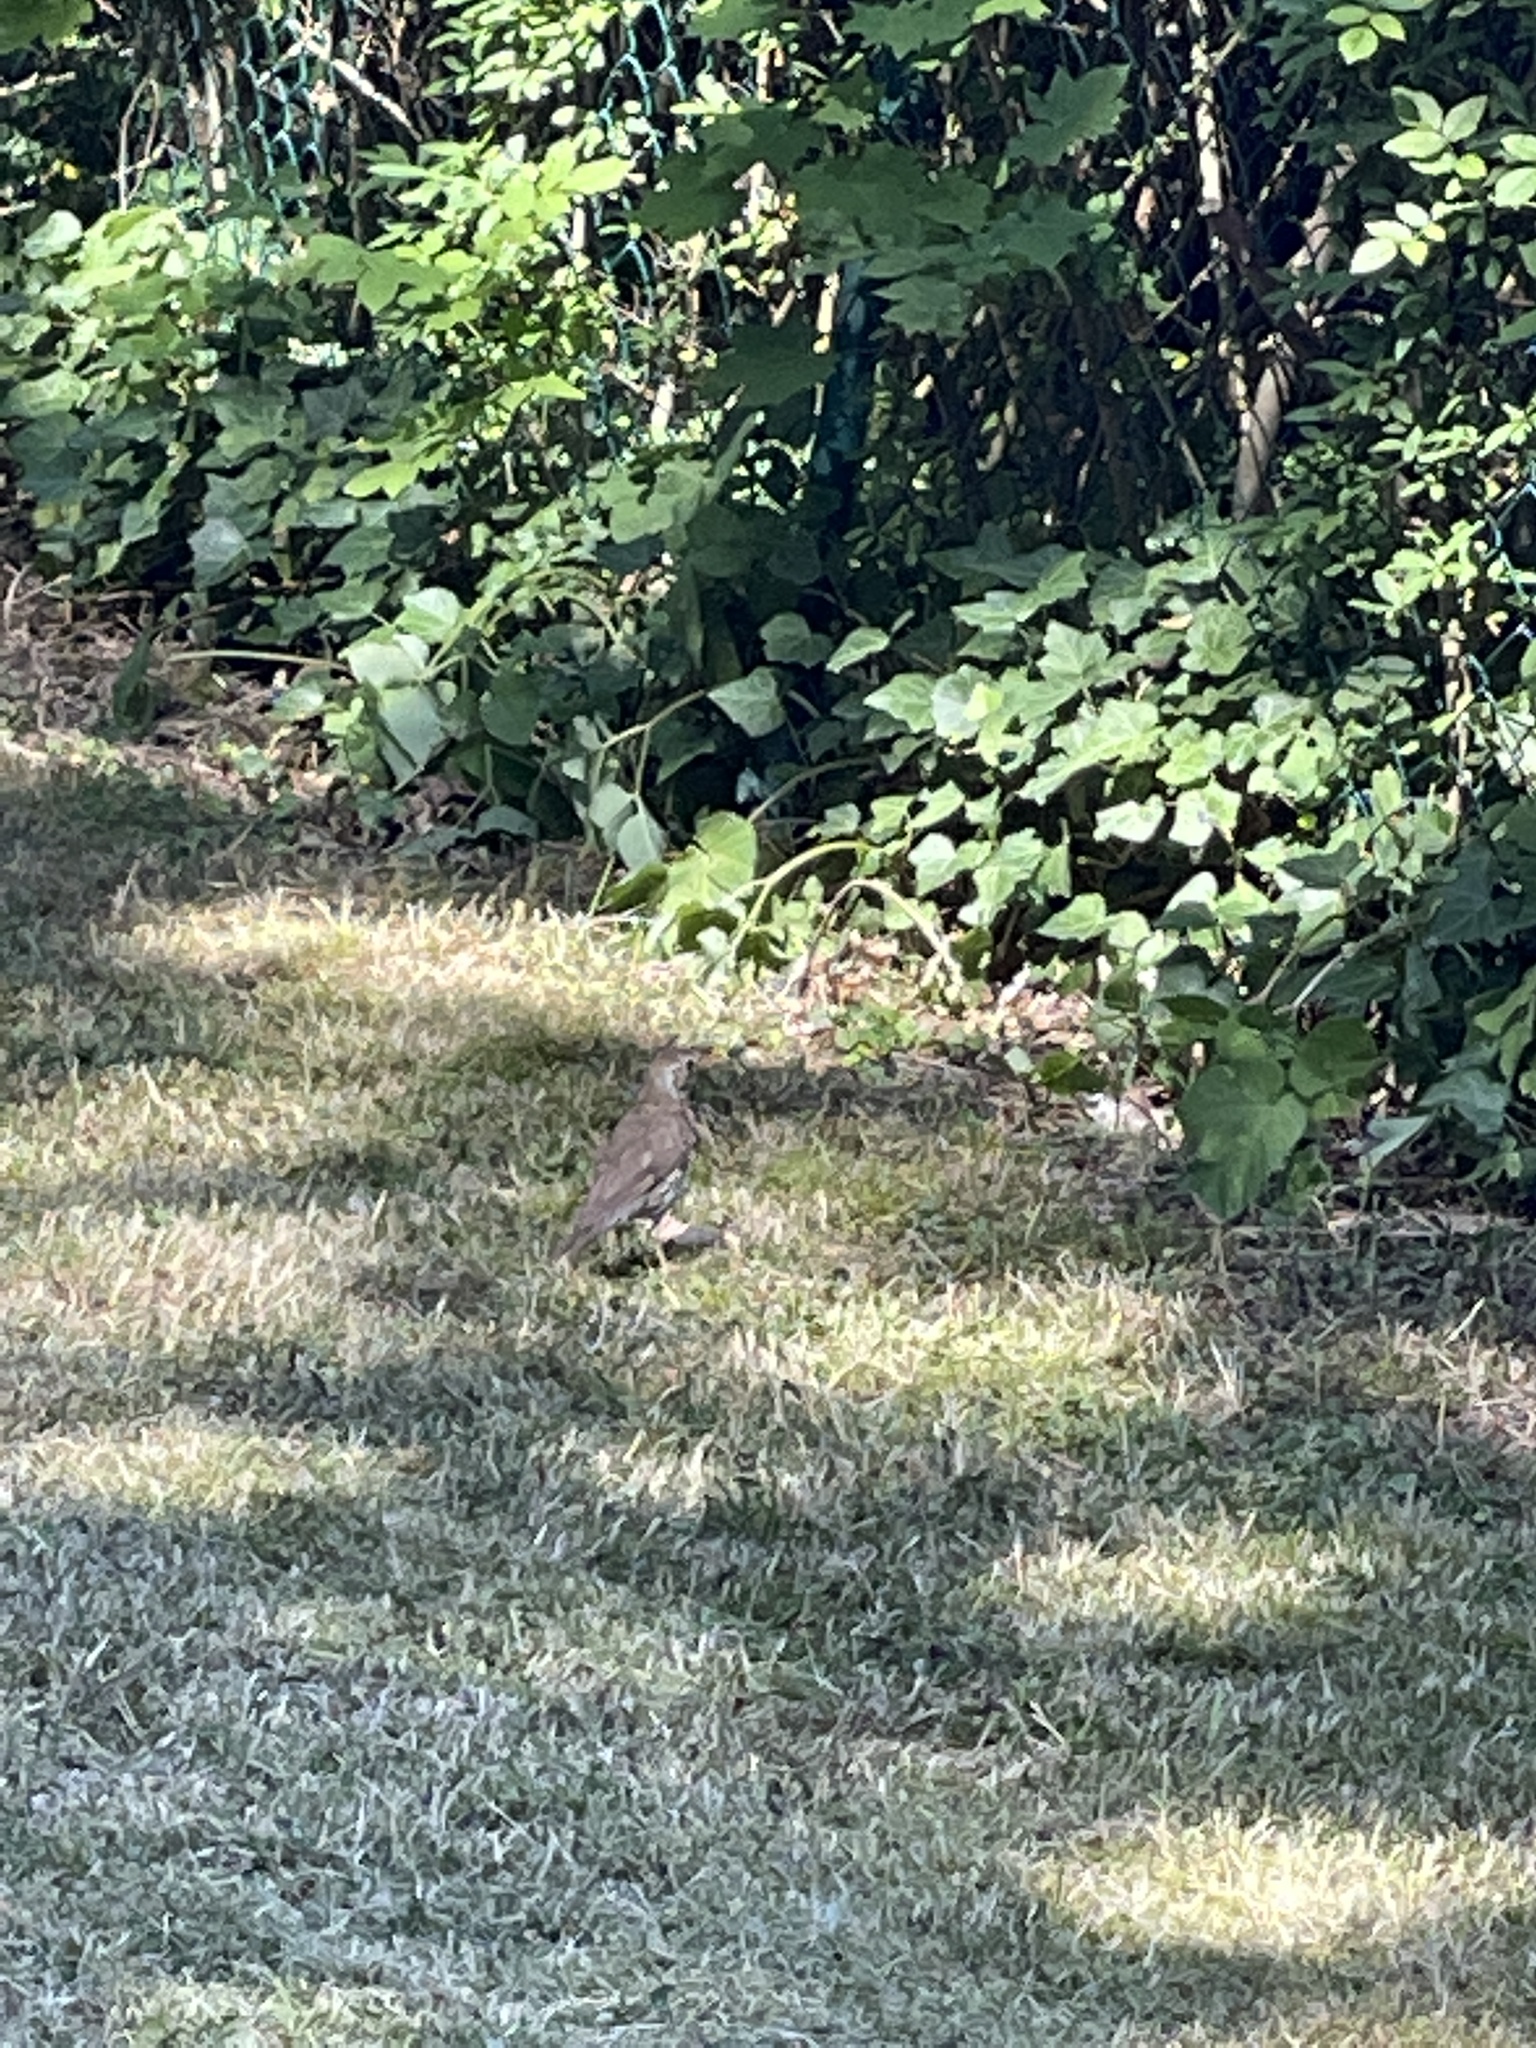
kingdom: Animalia
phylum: Chordata
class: Aves
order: Passeriformes
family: Turdidae
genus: Turdus
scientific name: Turdus philomelos
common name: Song thrush
